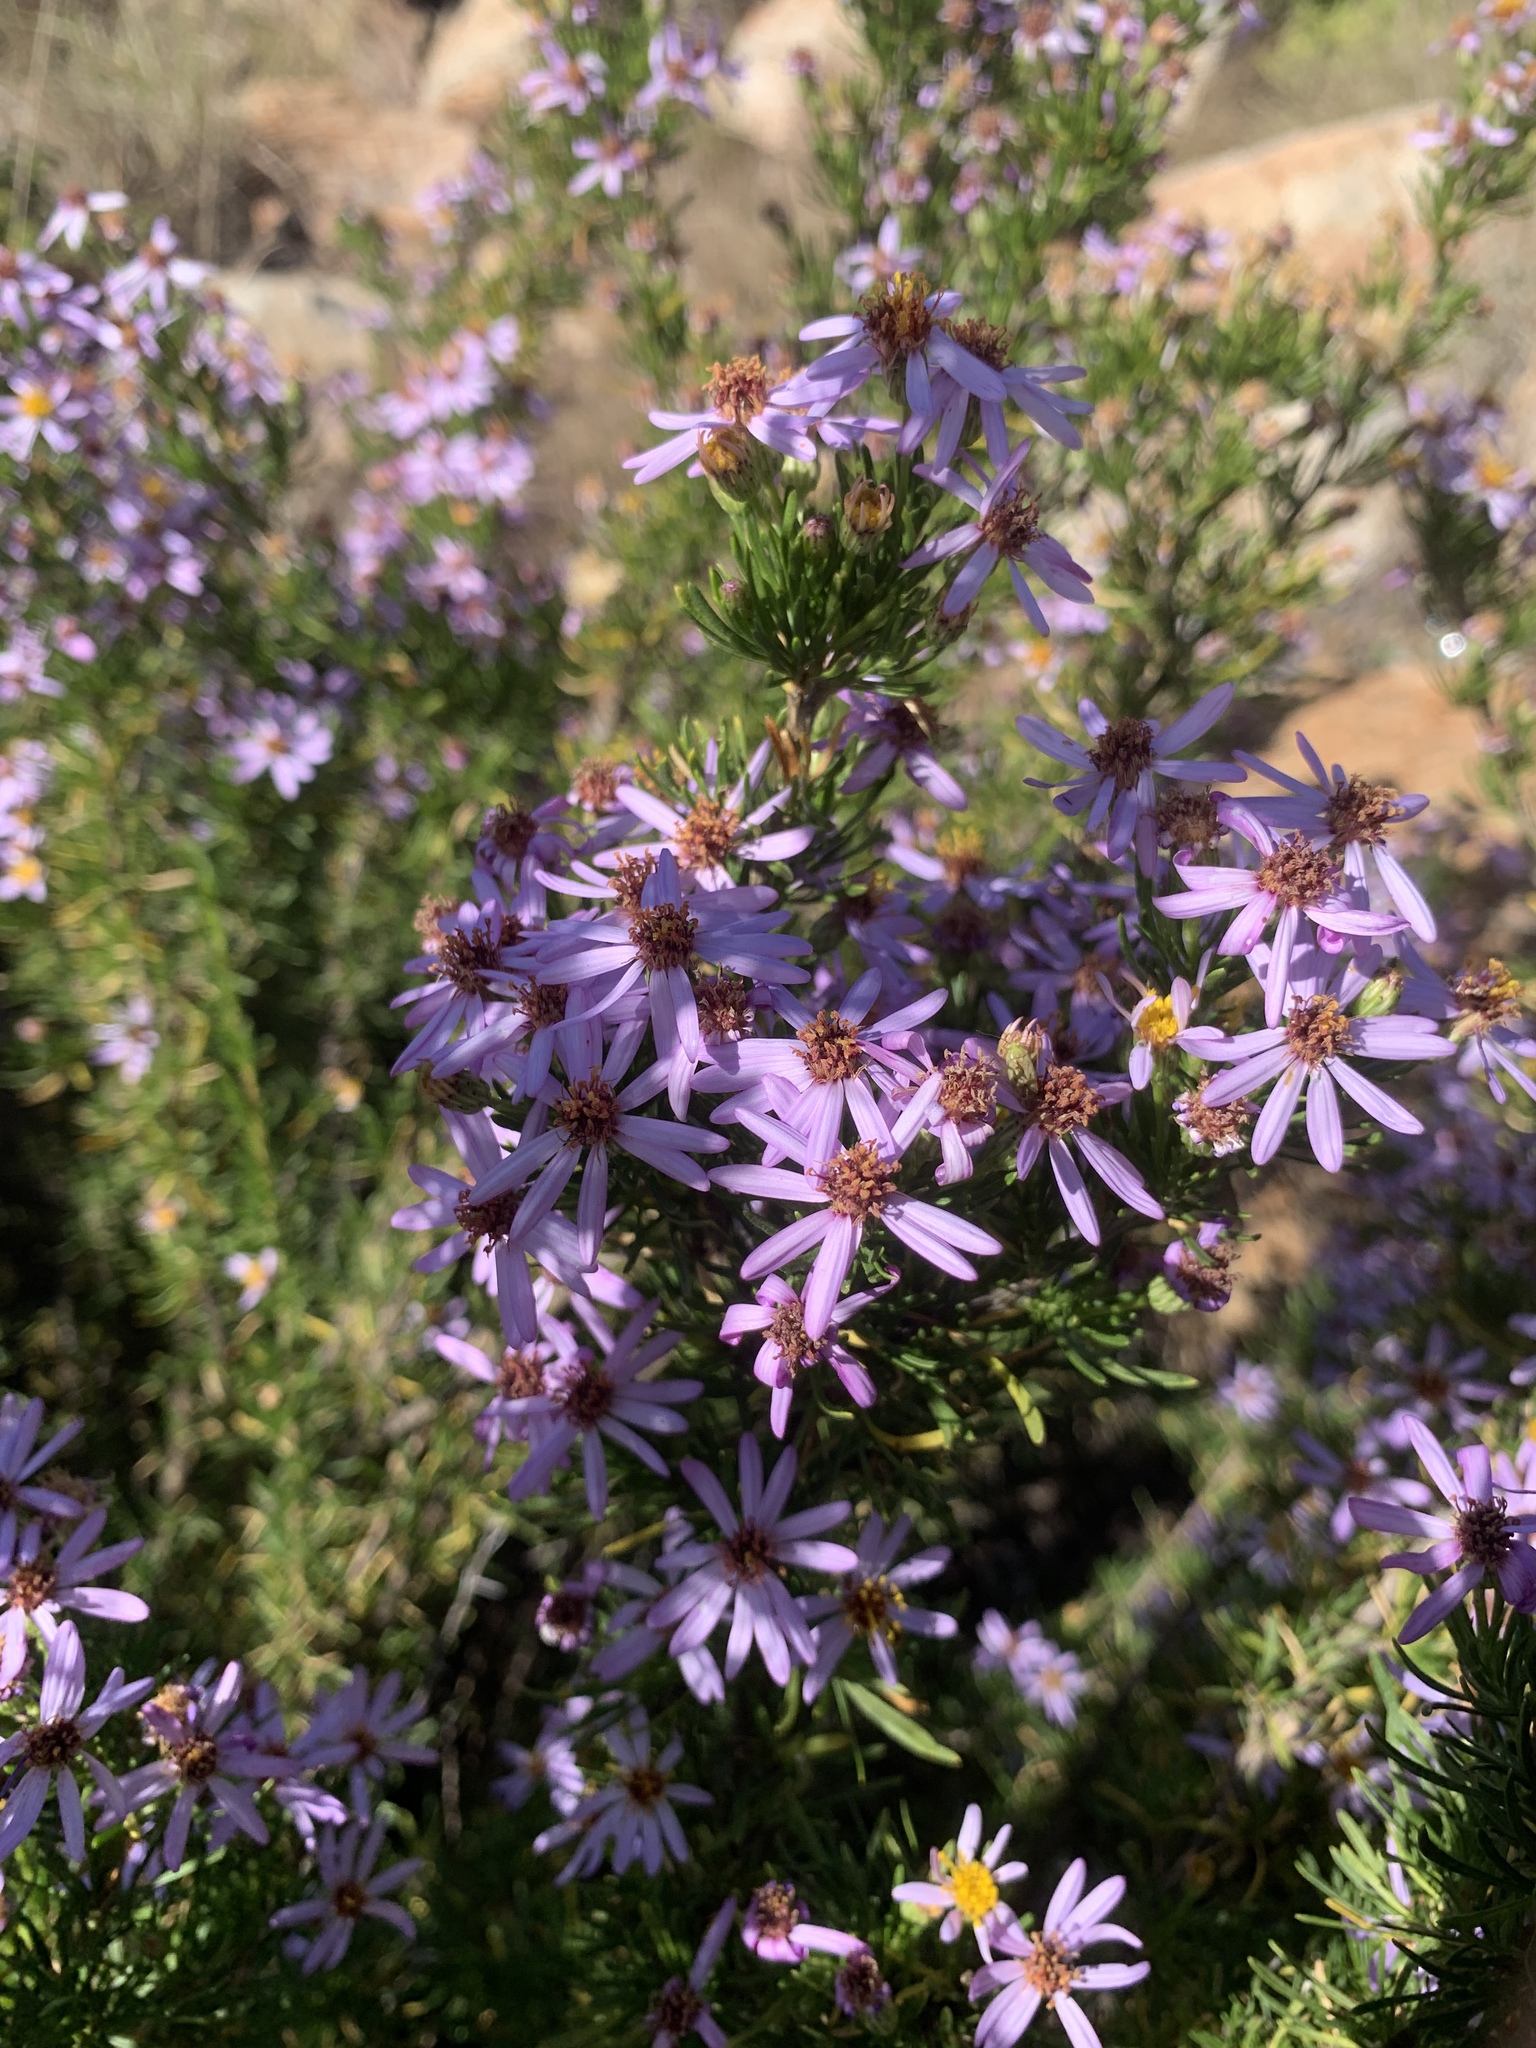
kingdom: Plantae
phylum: Tracheophyta
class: Magnoliopsida
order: Asterales
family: Asteraceae
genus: Felicia
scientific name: Felicia filifolia
